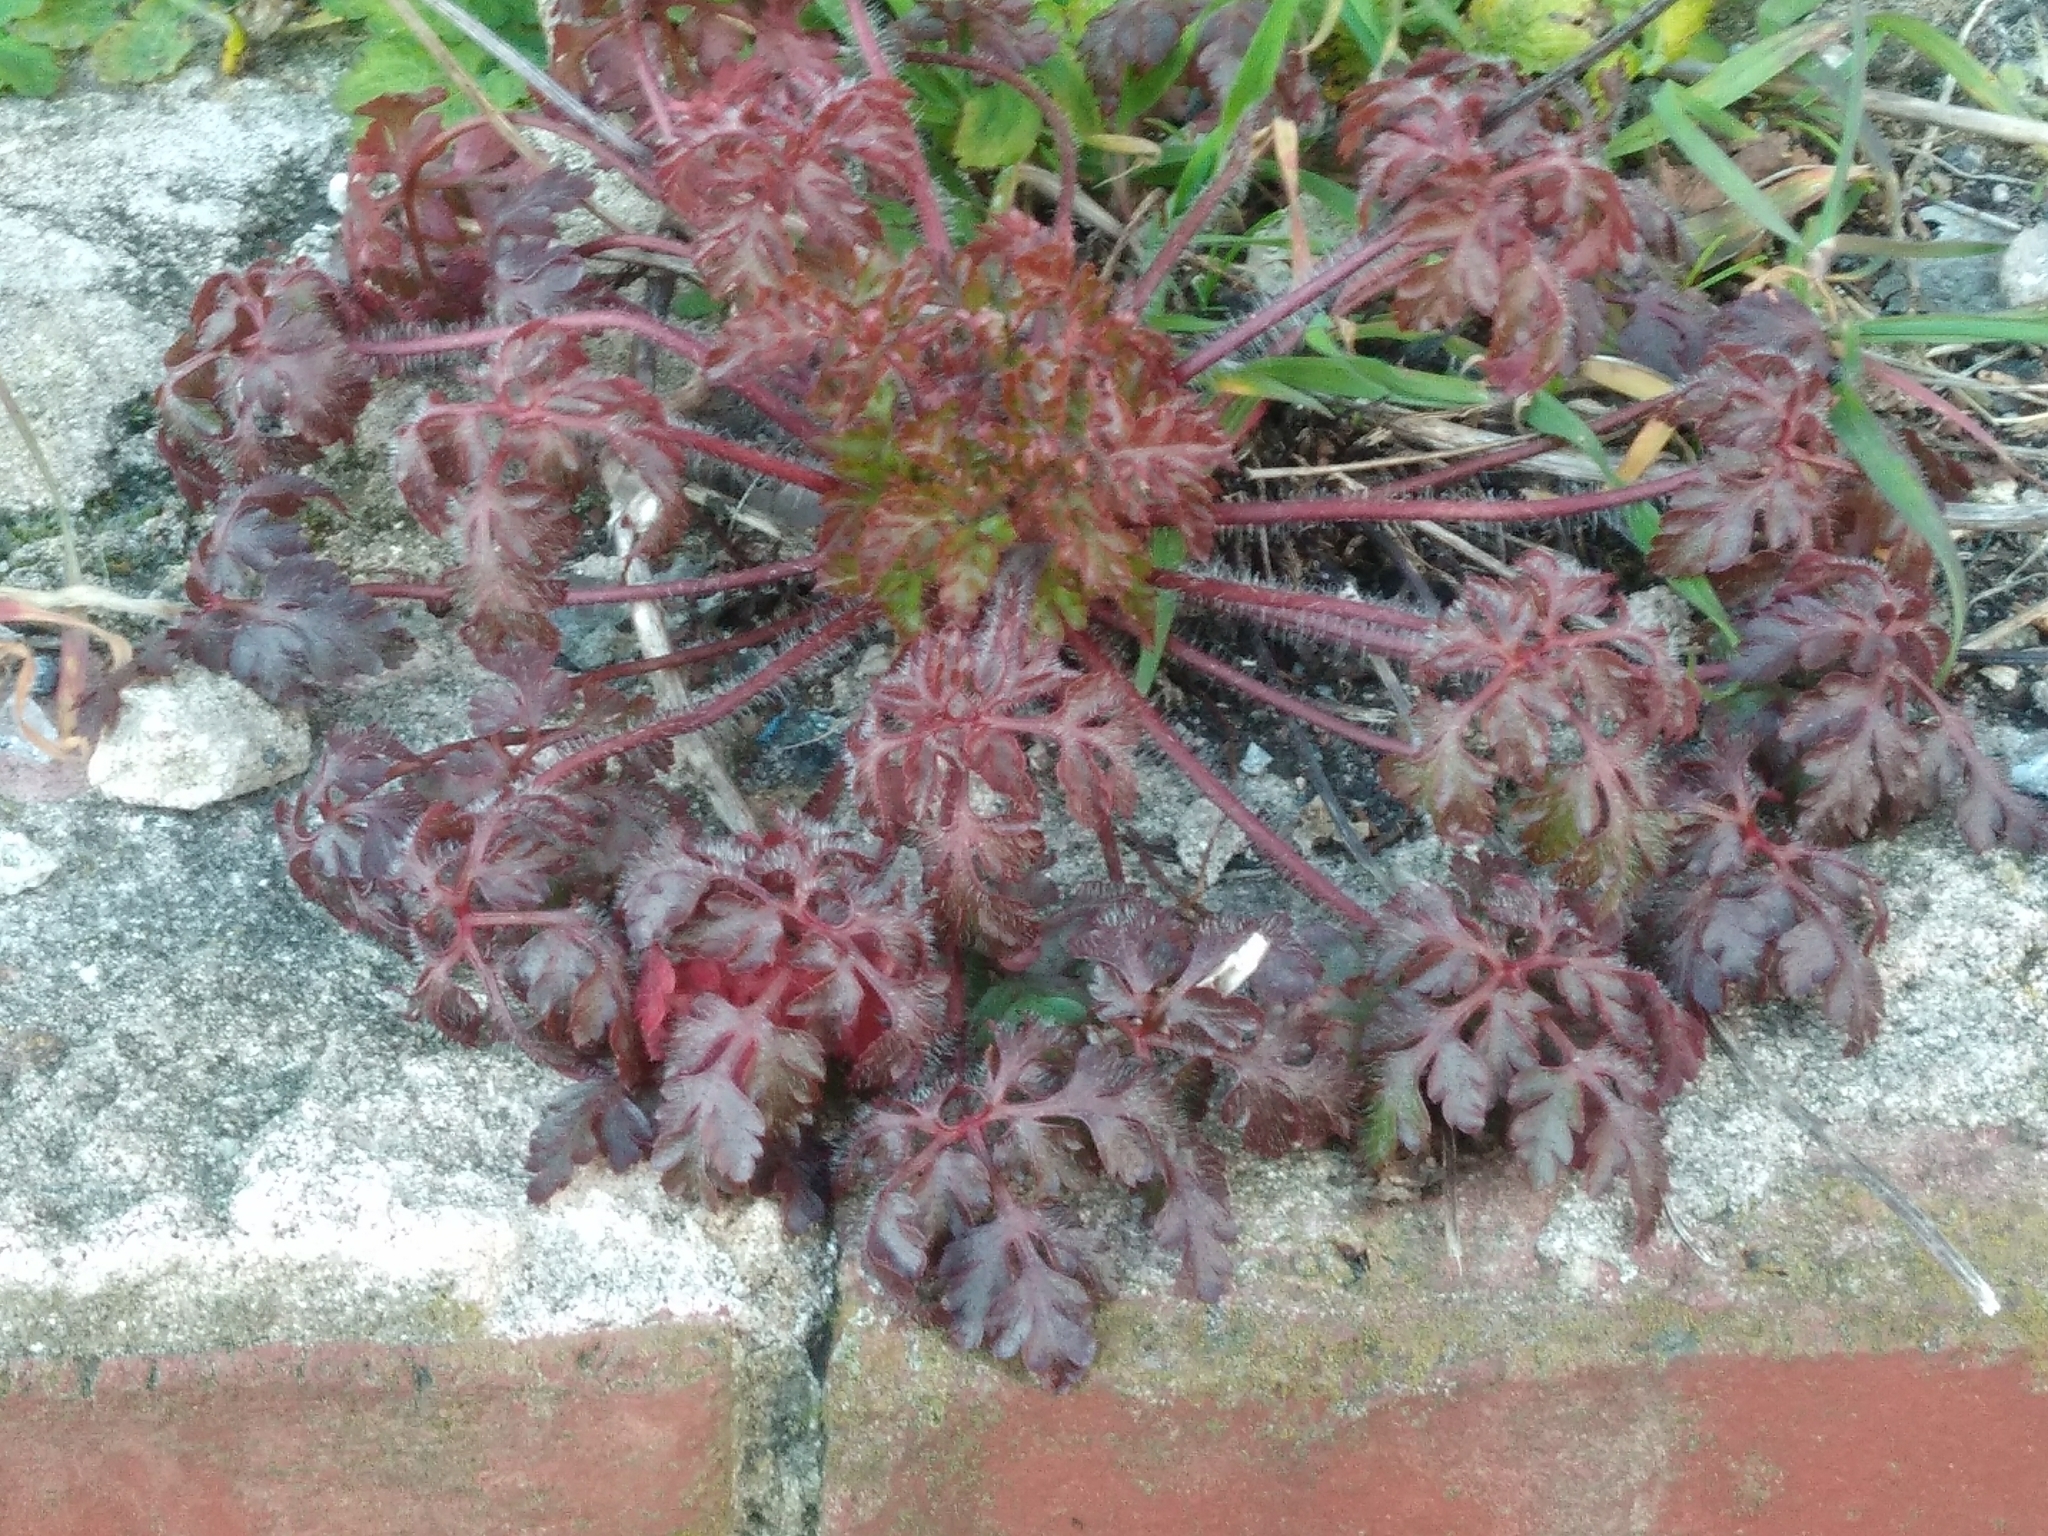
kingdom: Plantae
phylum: Tracheophyta
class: Magnoliopsida
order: Geraniales
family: Geraniaceae
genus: Geranium
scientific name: Geranium robertianum
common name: Herb-robert
